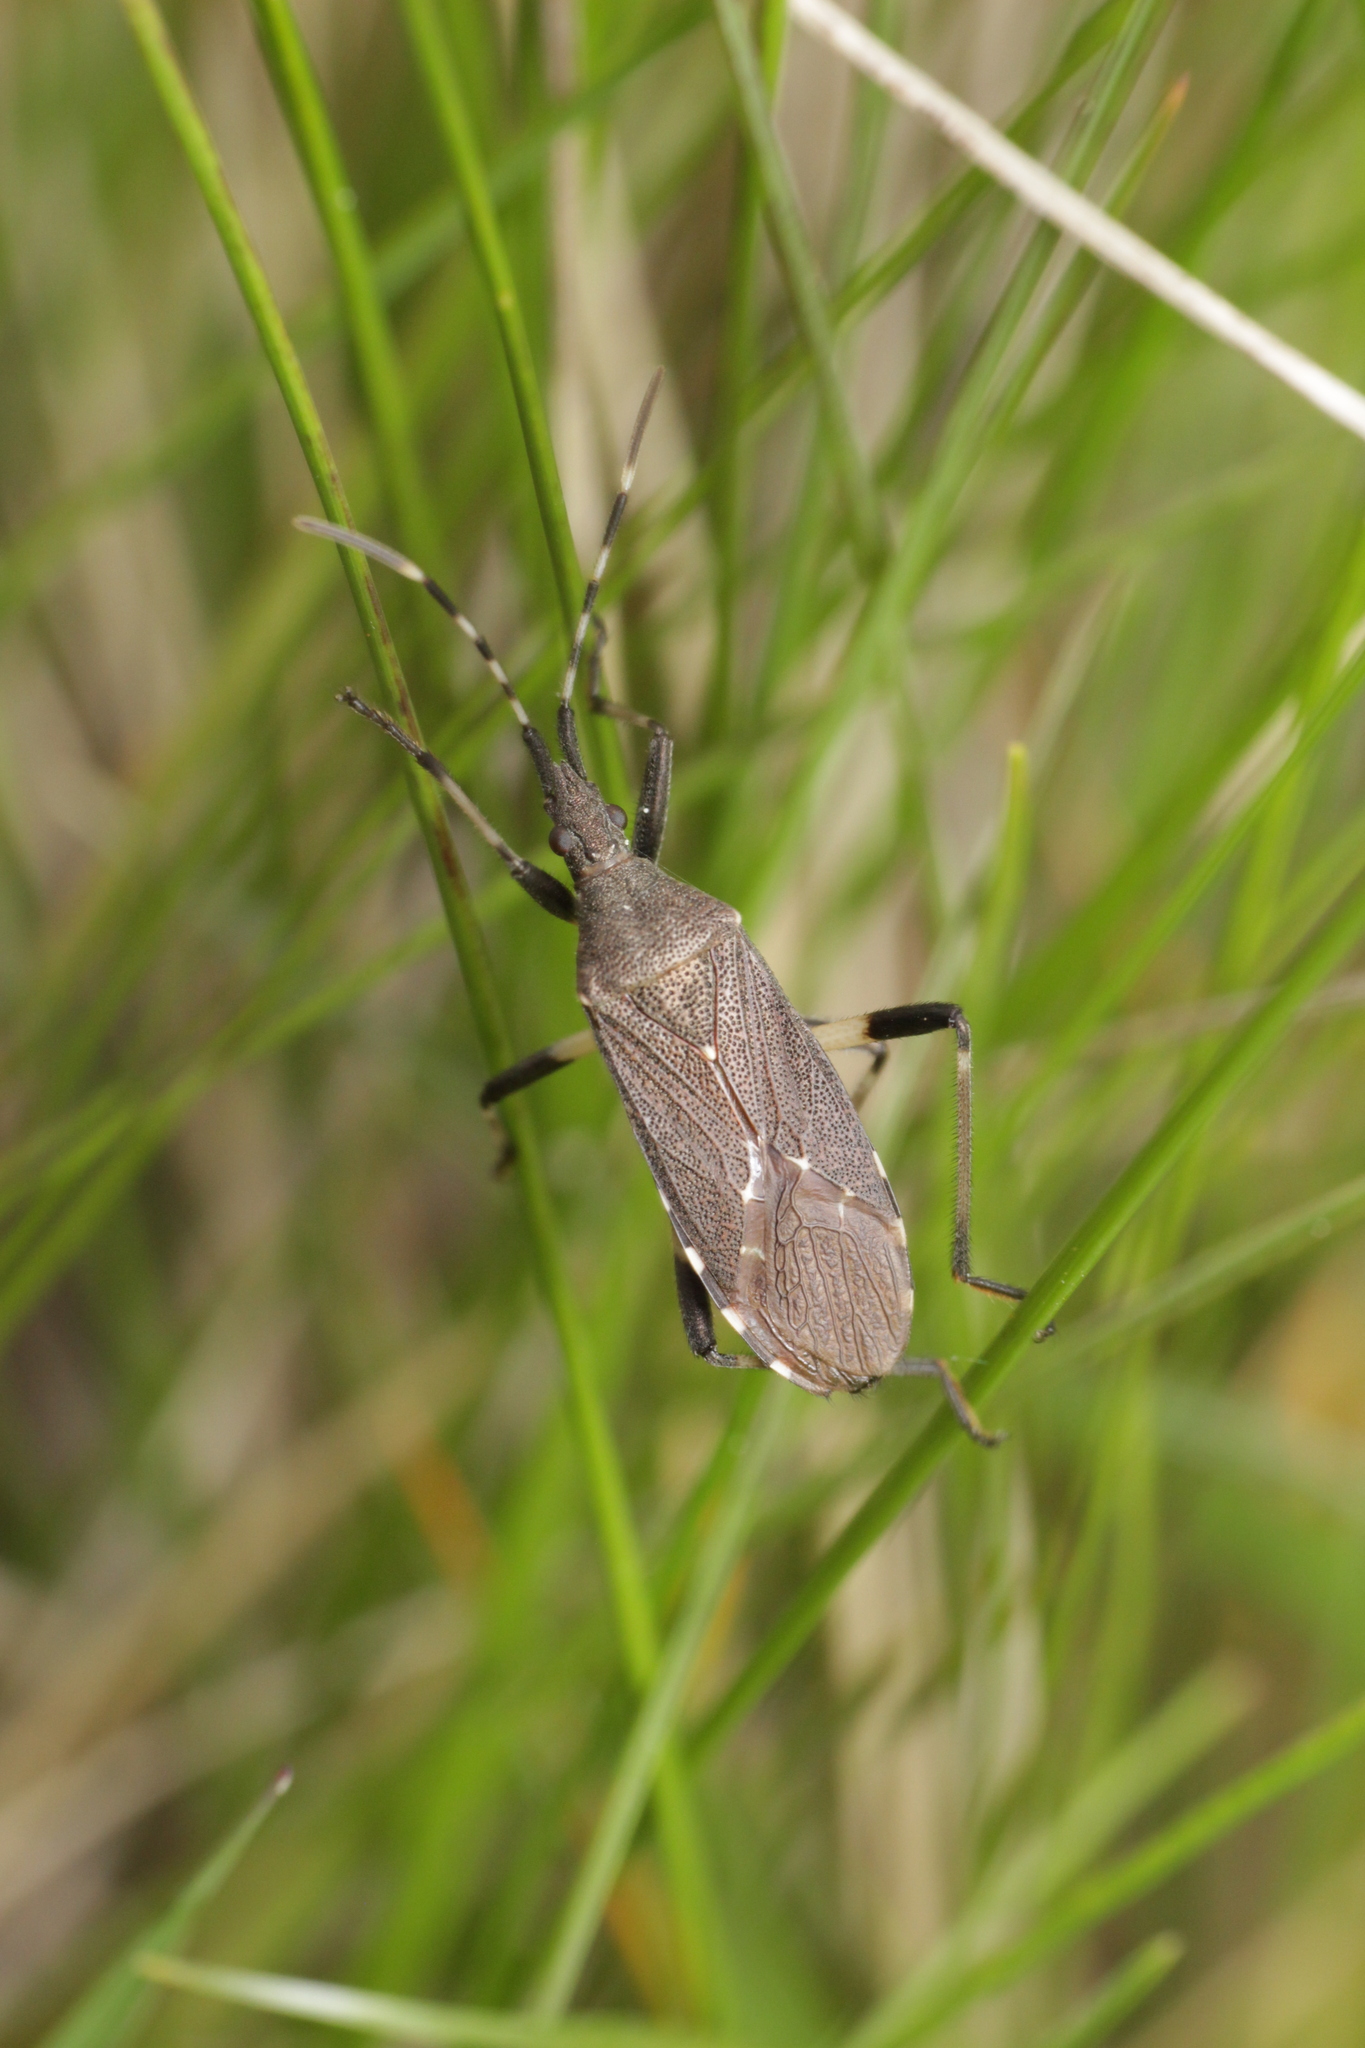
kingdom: Animalia
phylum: Arthropoda
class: Insecta
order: Hemiptera
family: Stenocephalidae
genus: Dicranocephalus
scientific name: Dicranocephalus agilis
